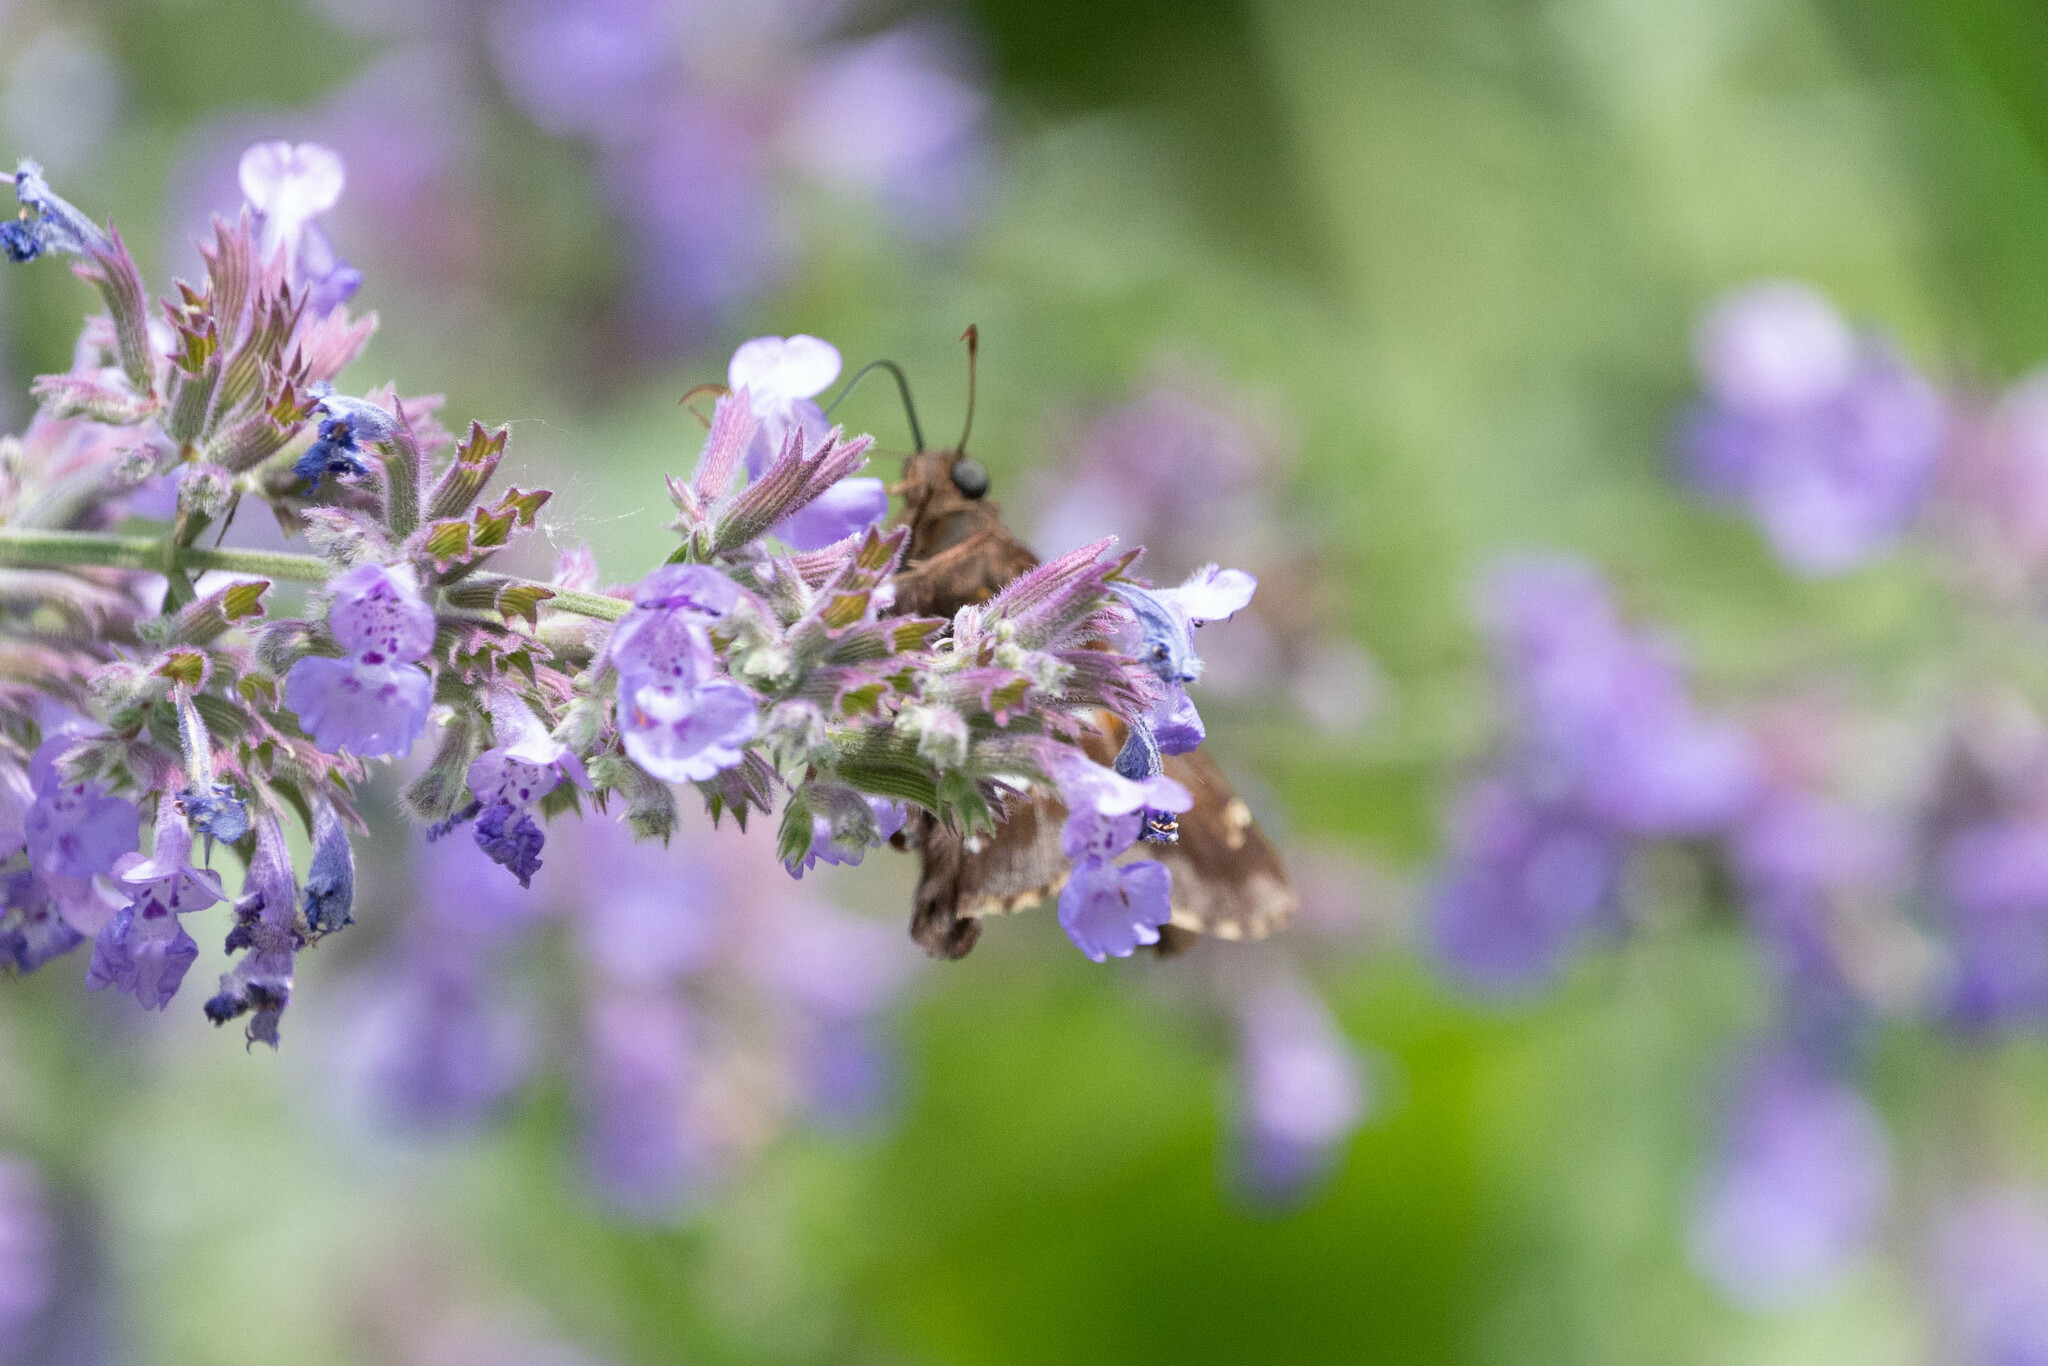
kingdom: Animalia
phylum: Arthropoda
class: Insecta
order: Lepidoptera
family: Hesperiidae
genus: Epargyreus
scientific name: Epargyreus clarus
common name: Silver-spotted skipper
